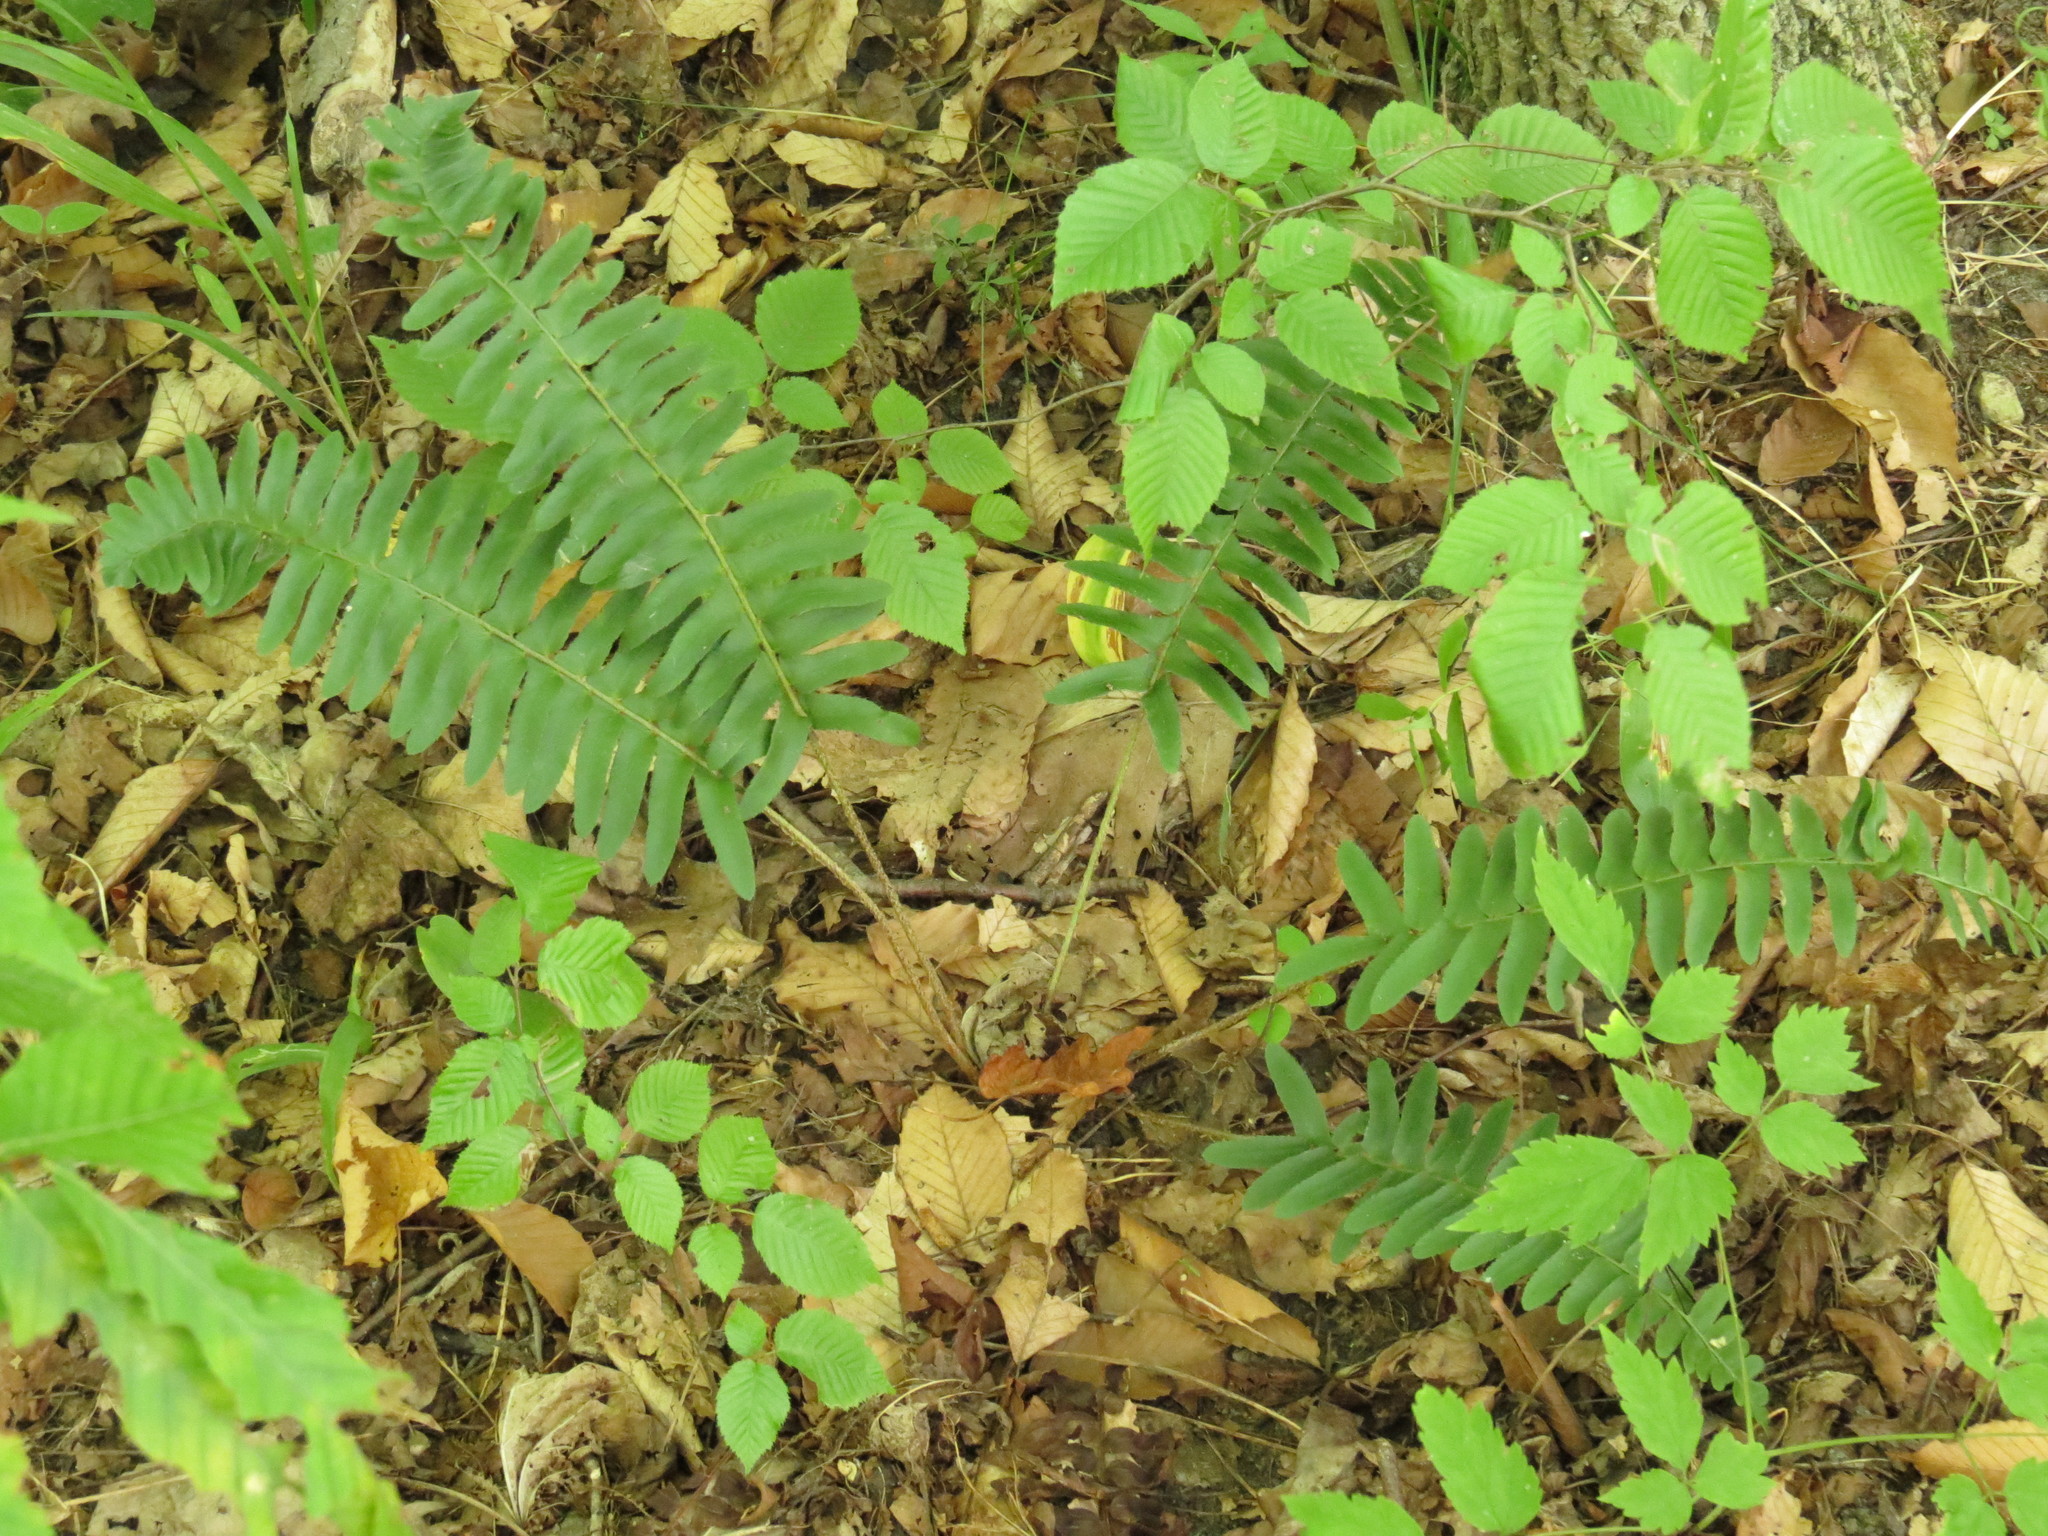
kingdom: Plantae
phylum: Tracheophyta
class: Polypodiopsida
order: Polypodiales
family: Dryopteridaceae
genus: Polystichum
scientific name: Polystichum acrostichoides
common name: Christmas fern
